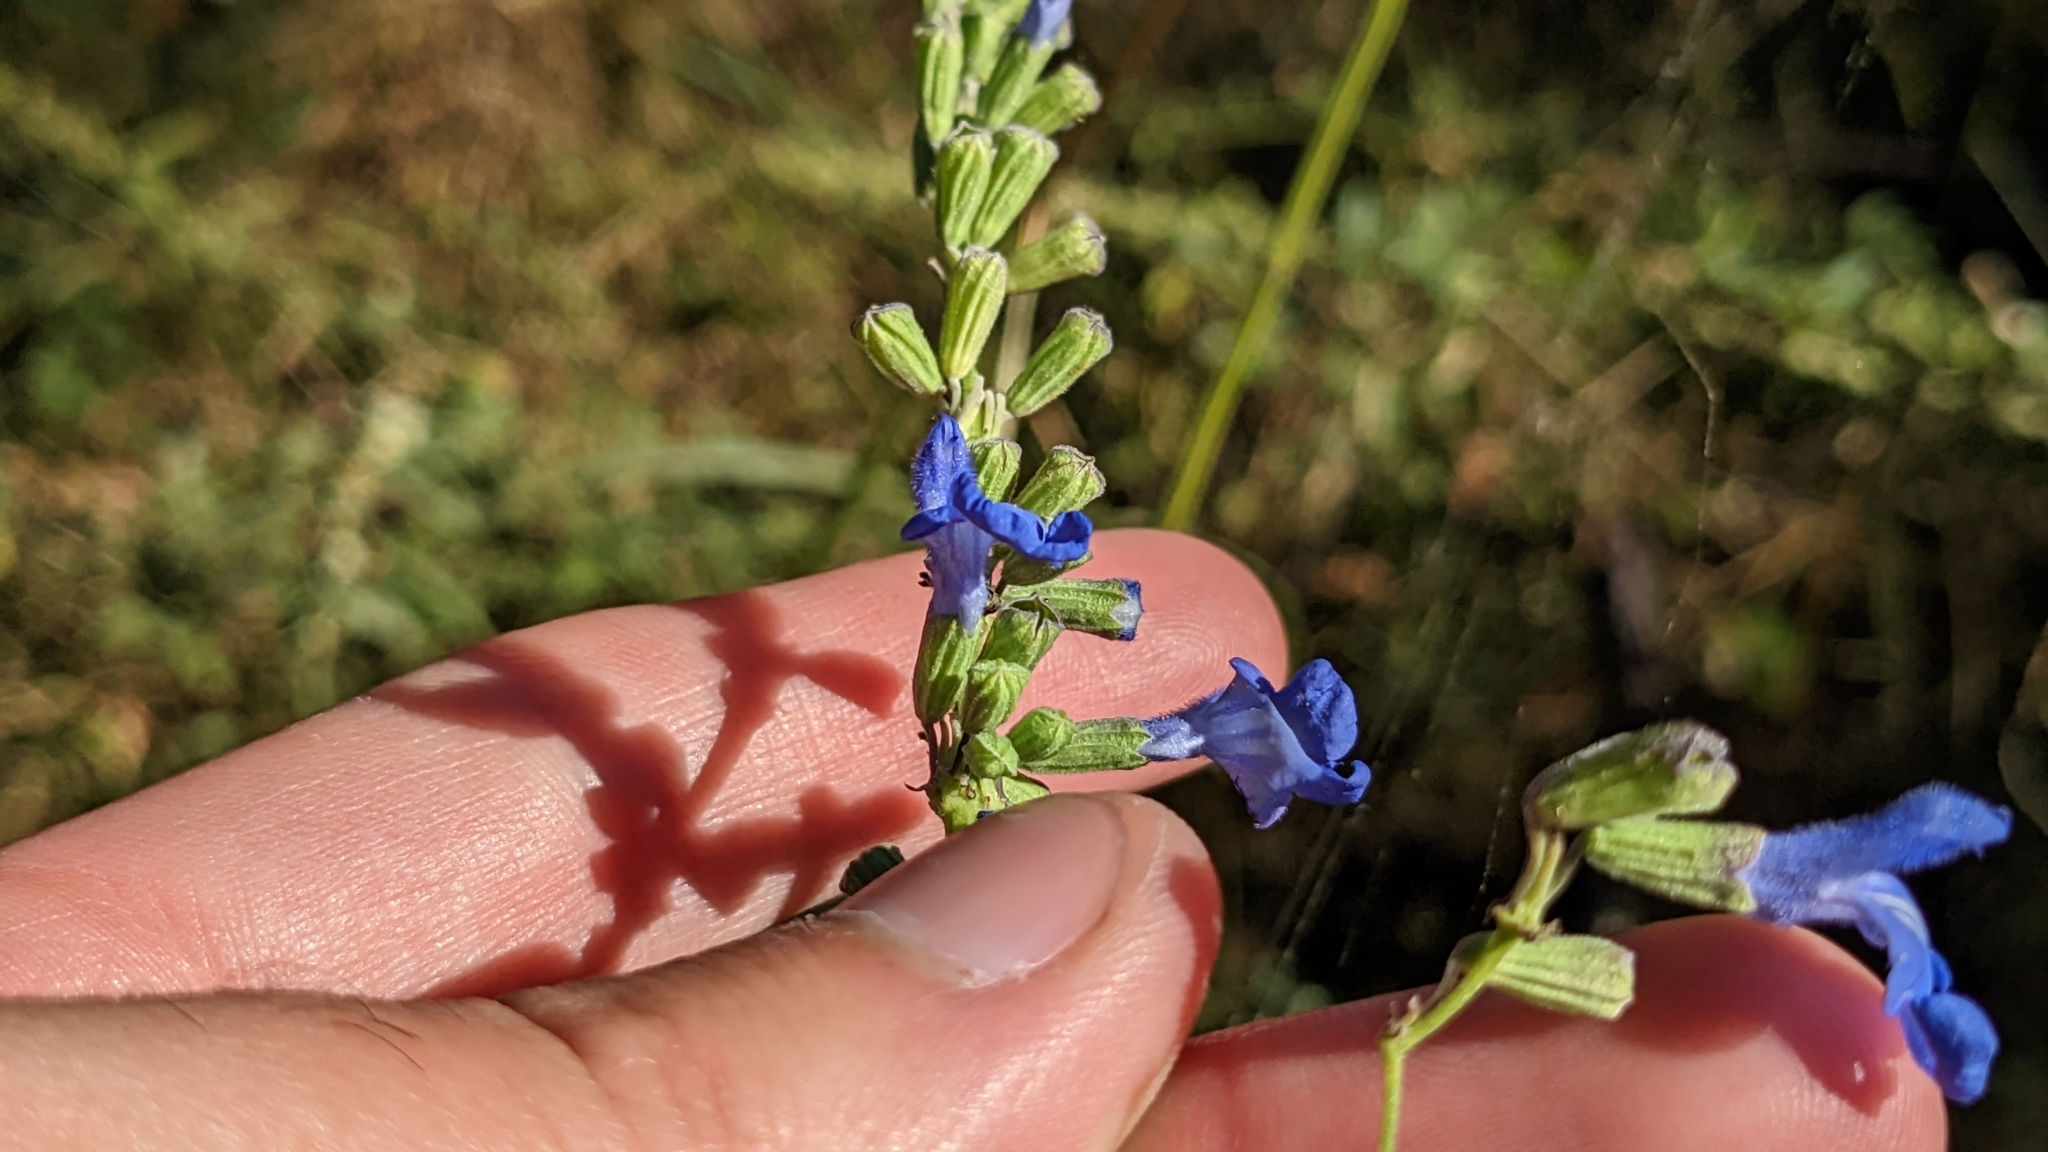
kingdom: Plantae
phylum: Tracheophyta
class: Magnoliopsida
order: Lamiales
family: Lamiaceae
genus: Salvia
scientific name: Salvia azurea
